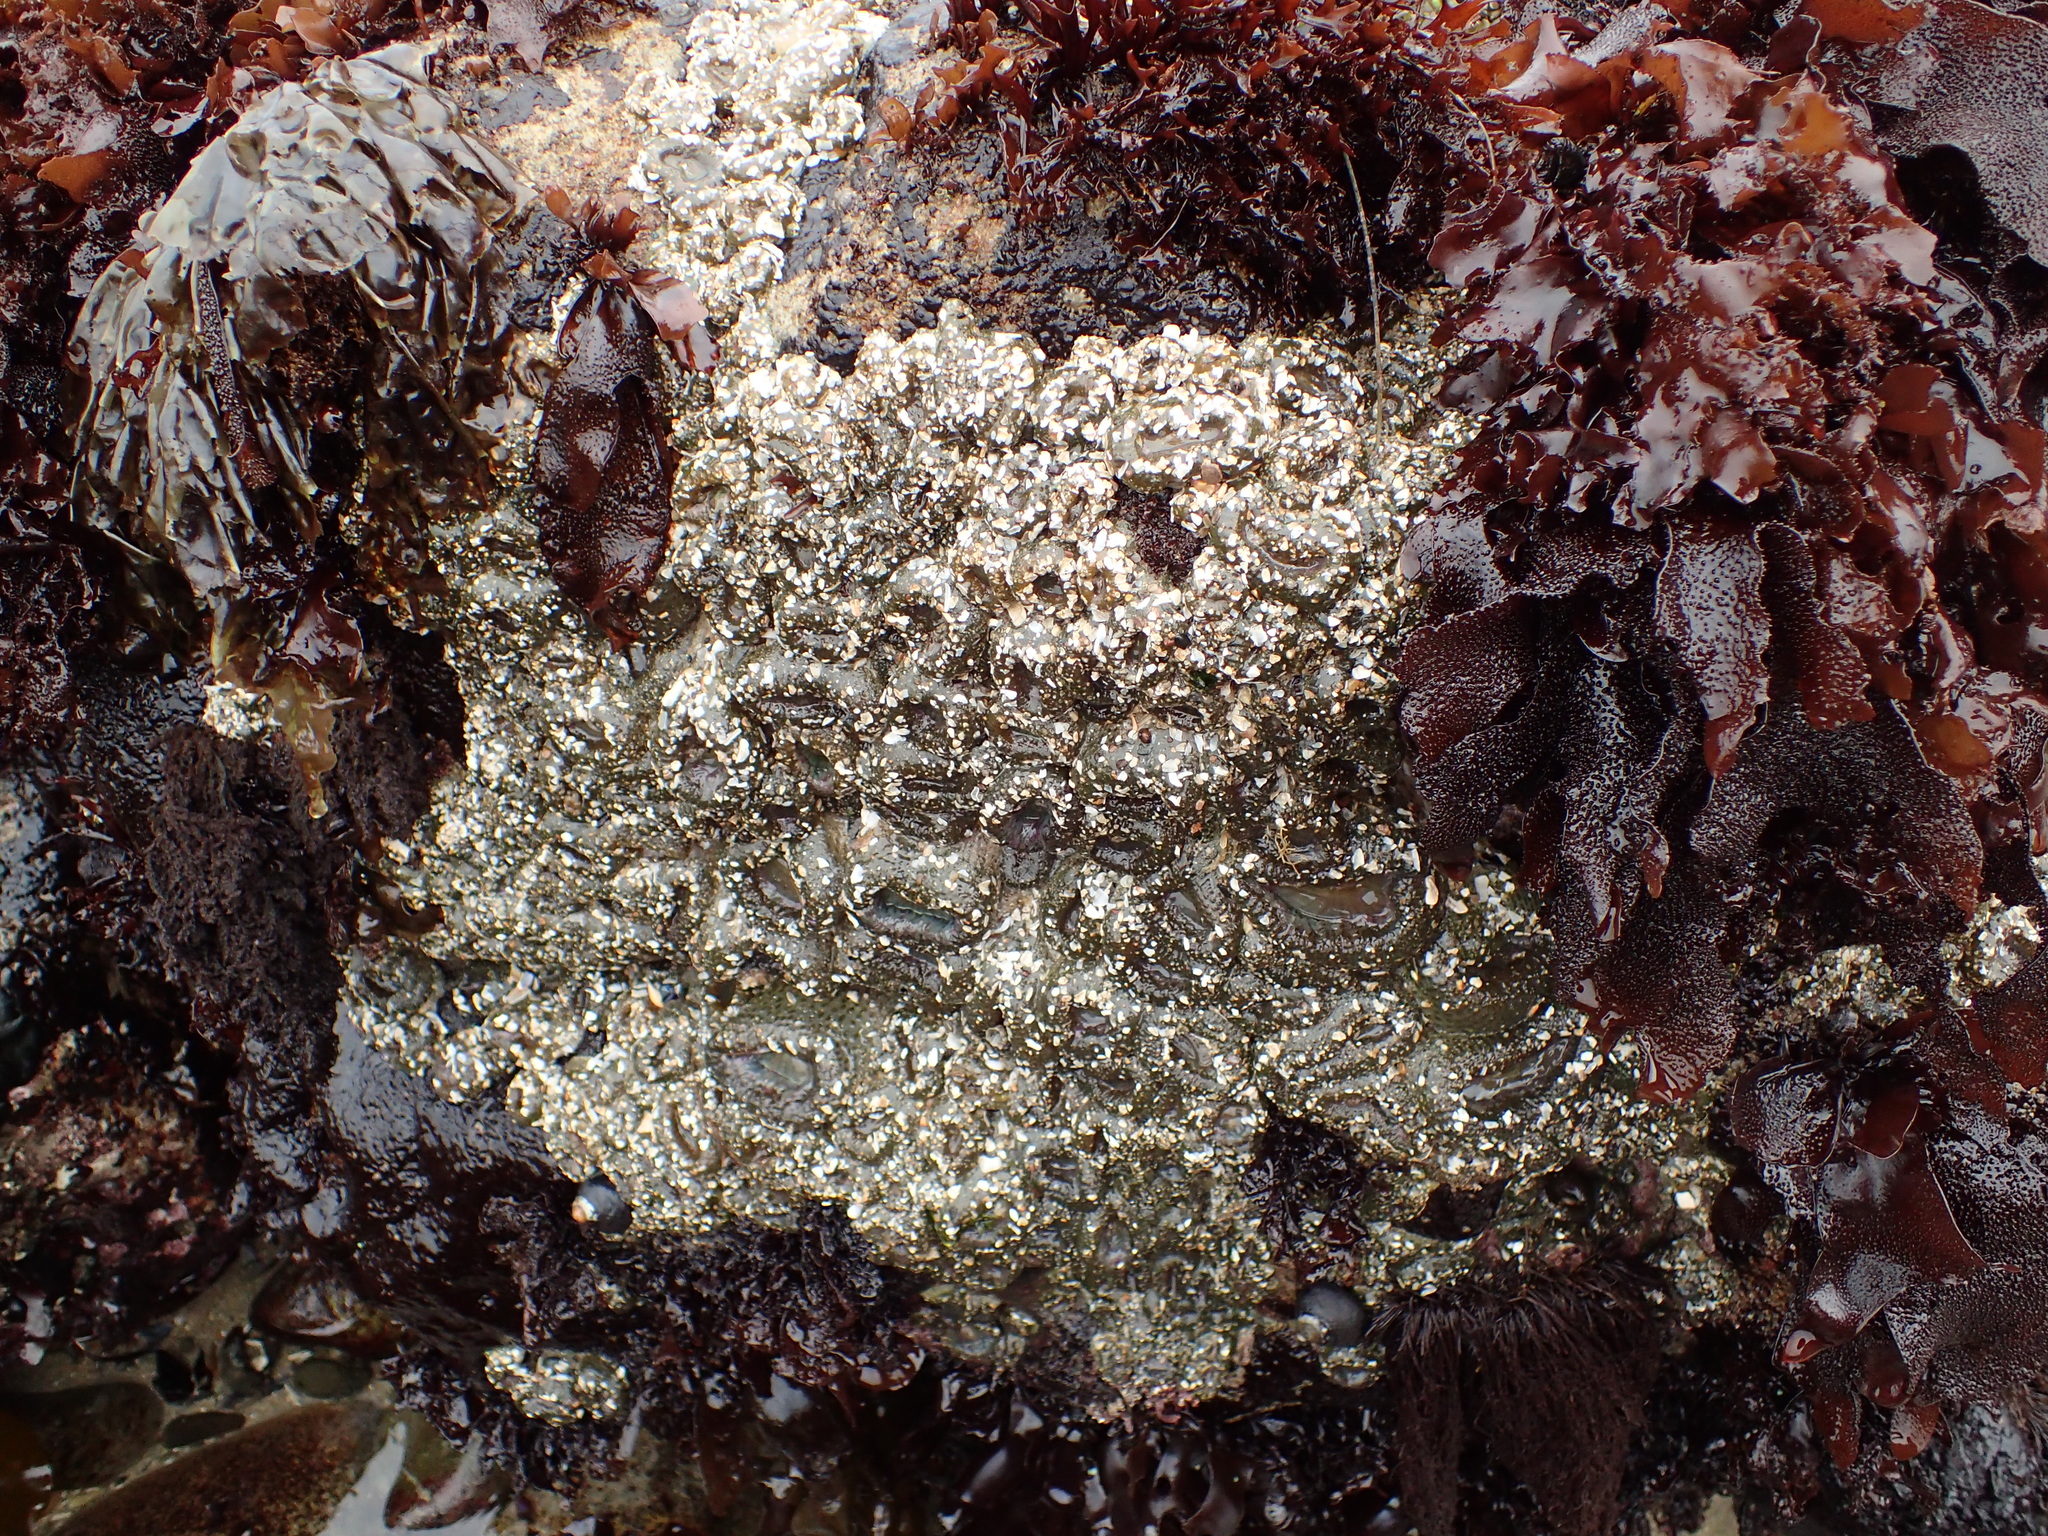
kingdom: Animalia
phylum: Cnidaria
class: Anthozoa
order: Actiniaria
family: Actiniidae
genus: Anthopleura
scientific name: Anthopleura elegantissima
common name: Clonal anemone
